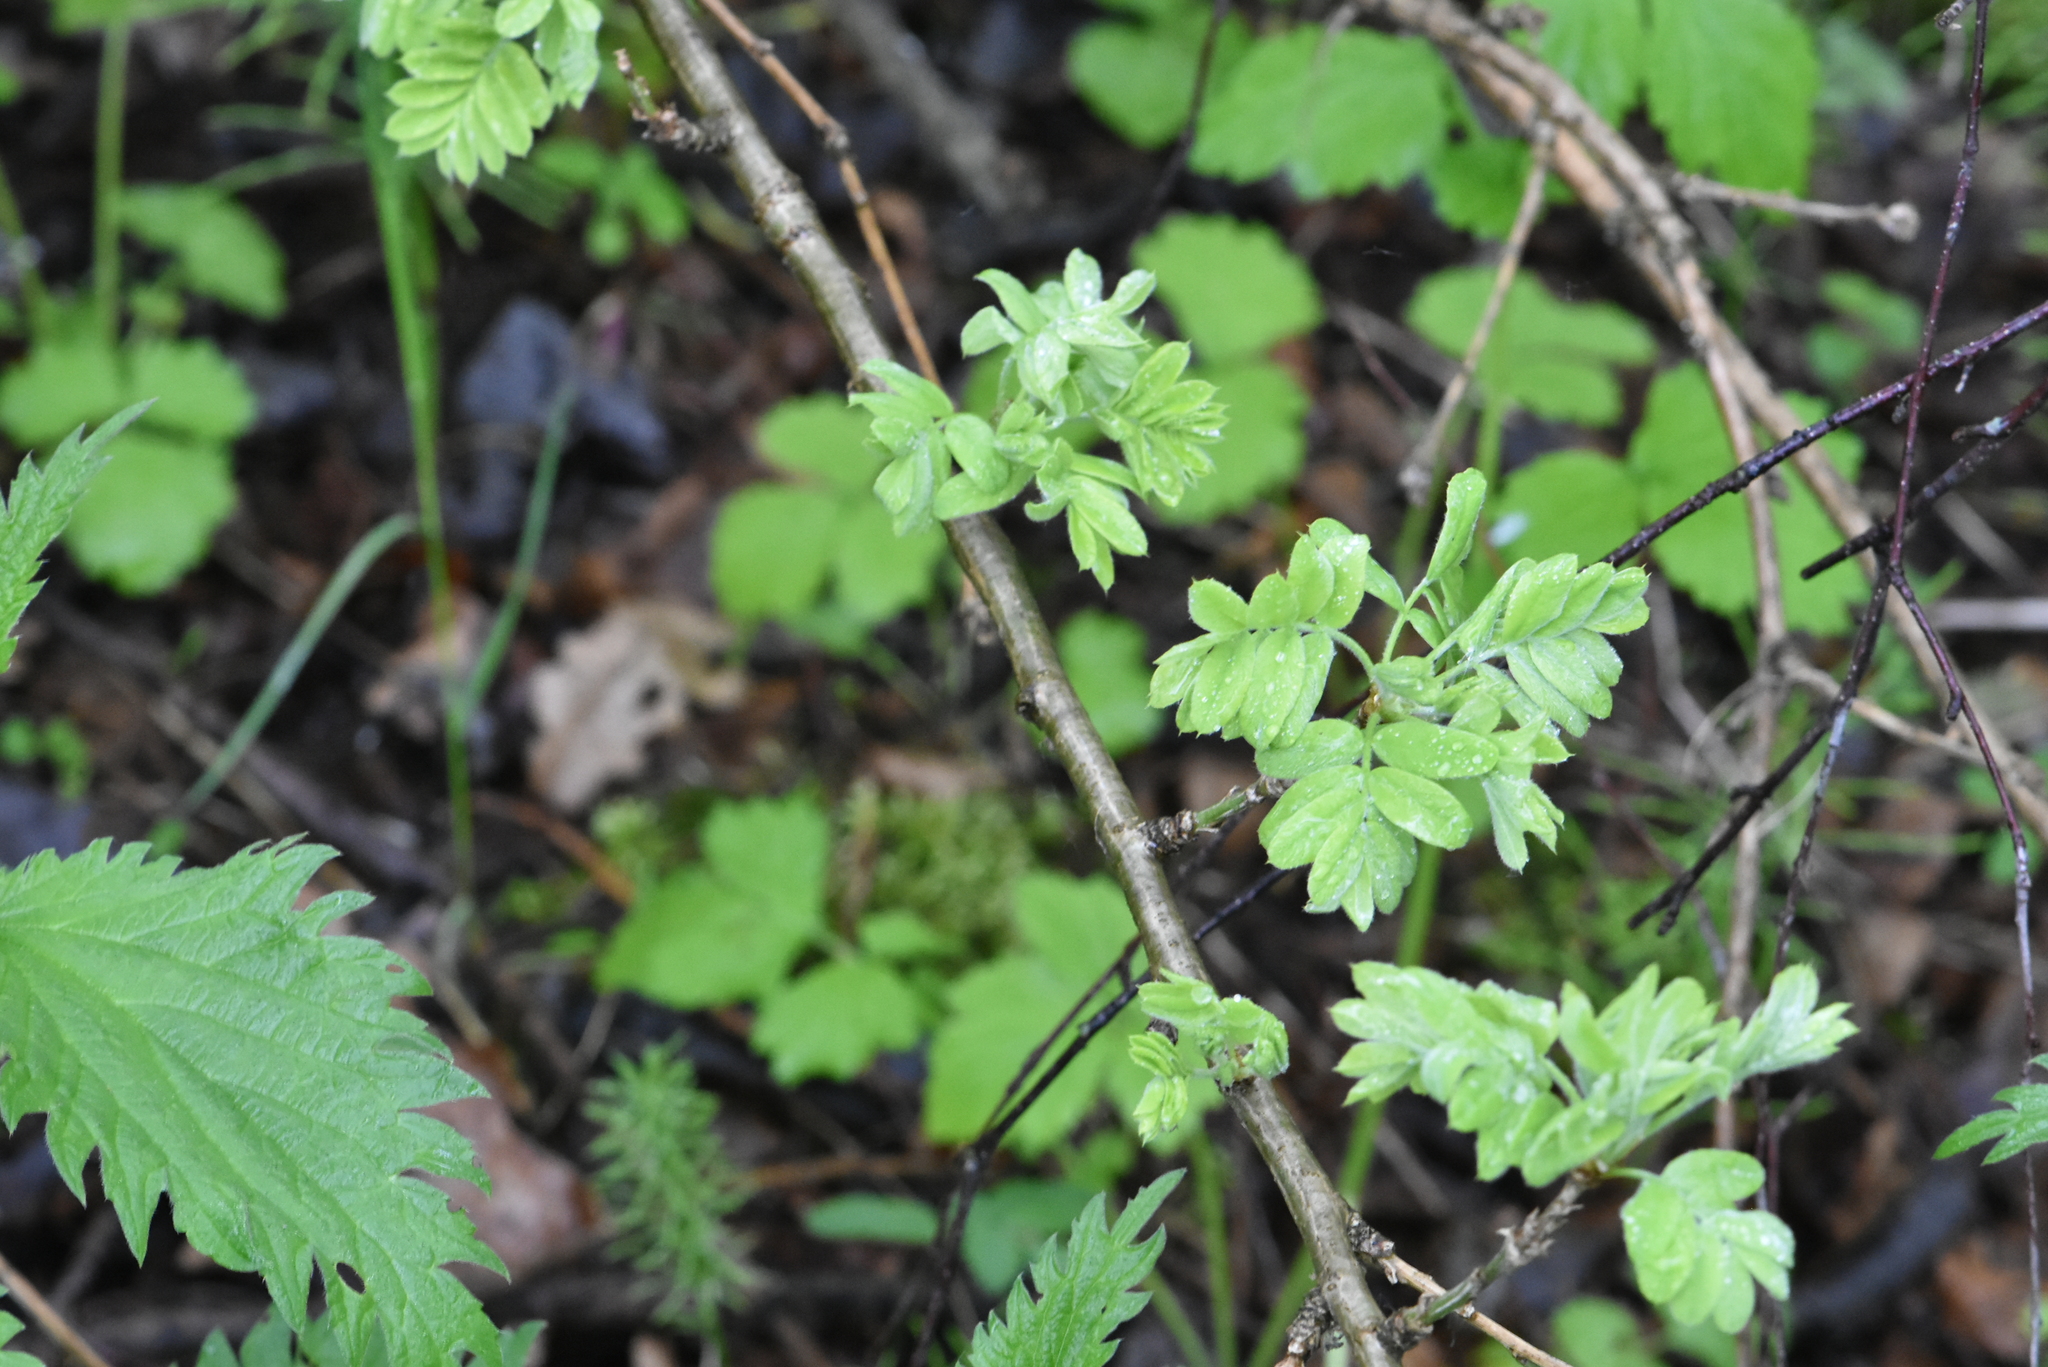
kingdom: Plantae
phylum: Tracheophyta
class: Magnoliopsida
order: Fabales
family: Fabaceae
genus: Caragana
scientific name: Caragana arborescens
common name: Siberian peashrub
